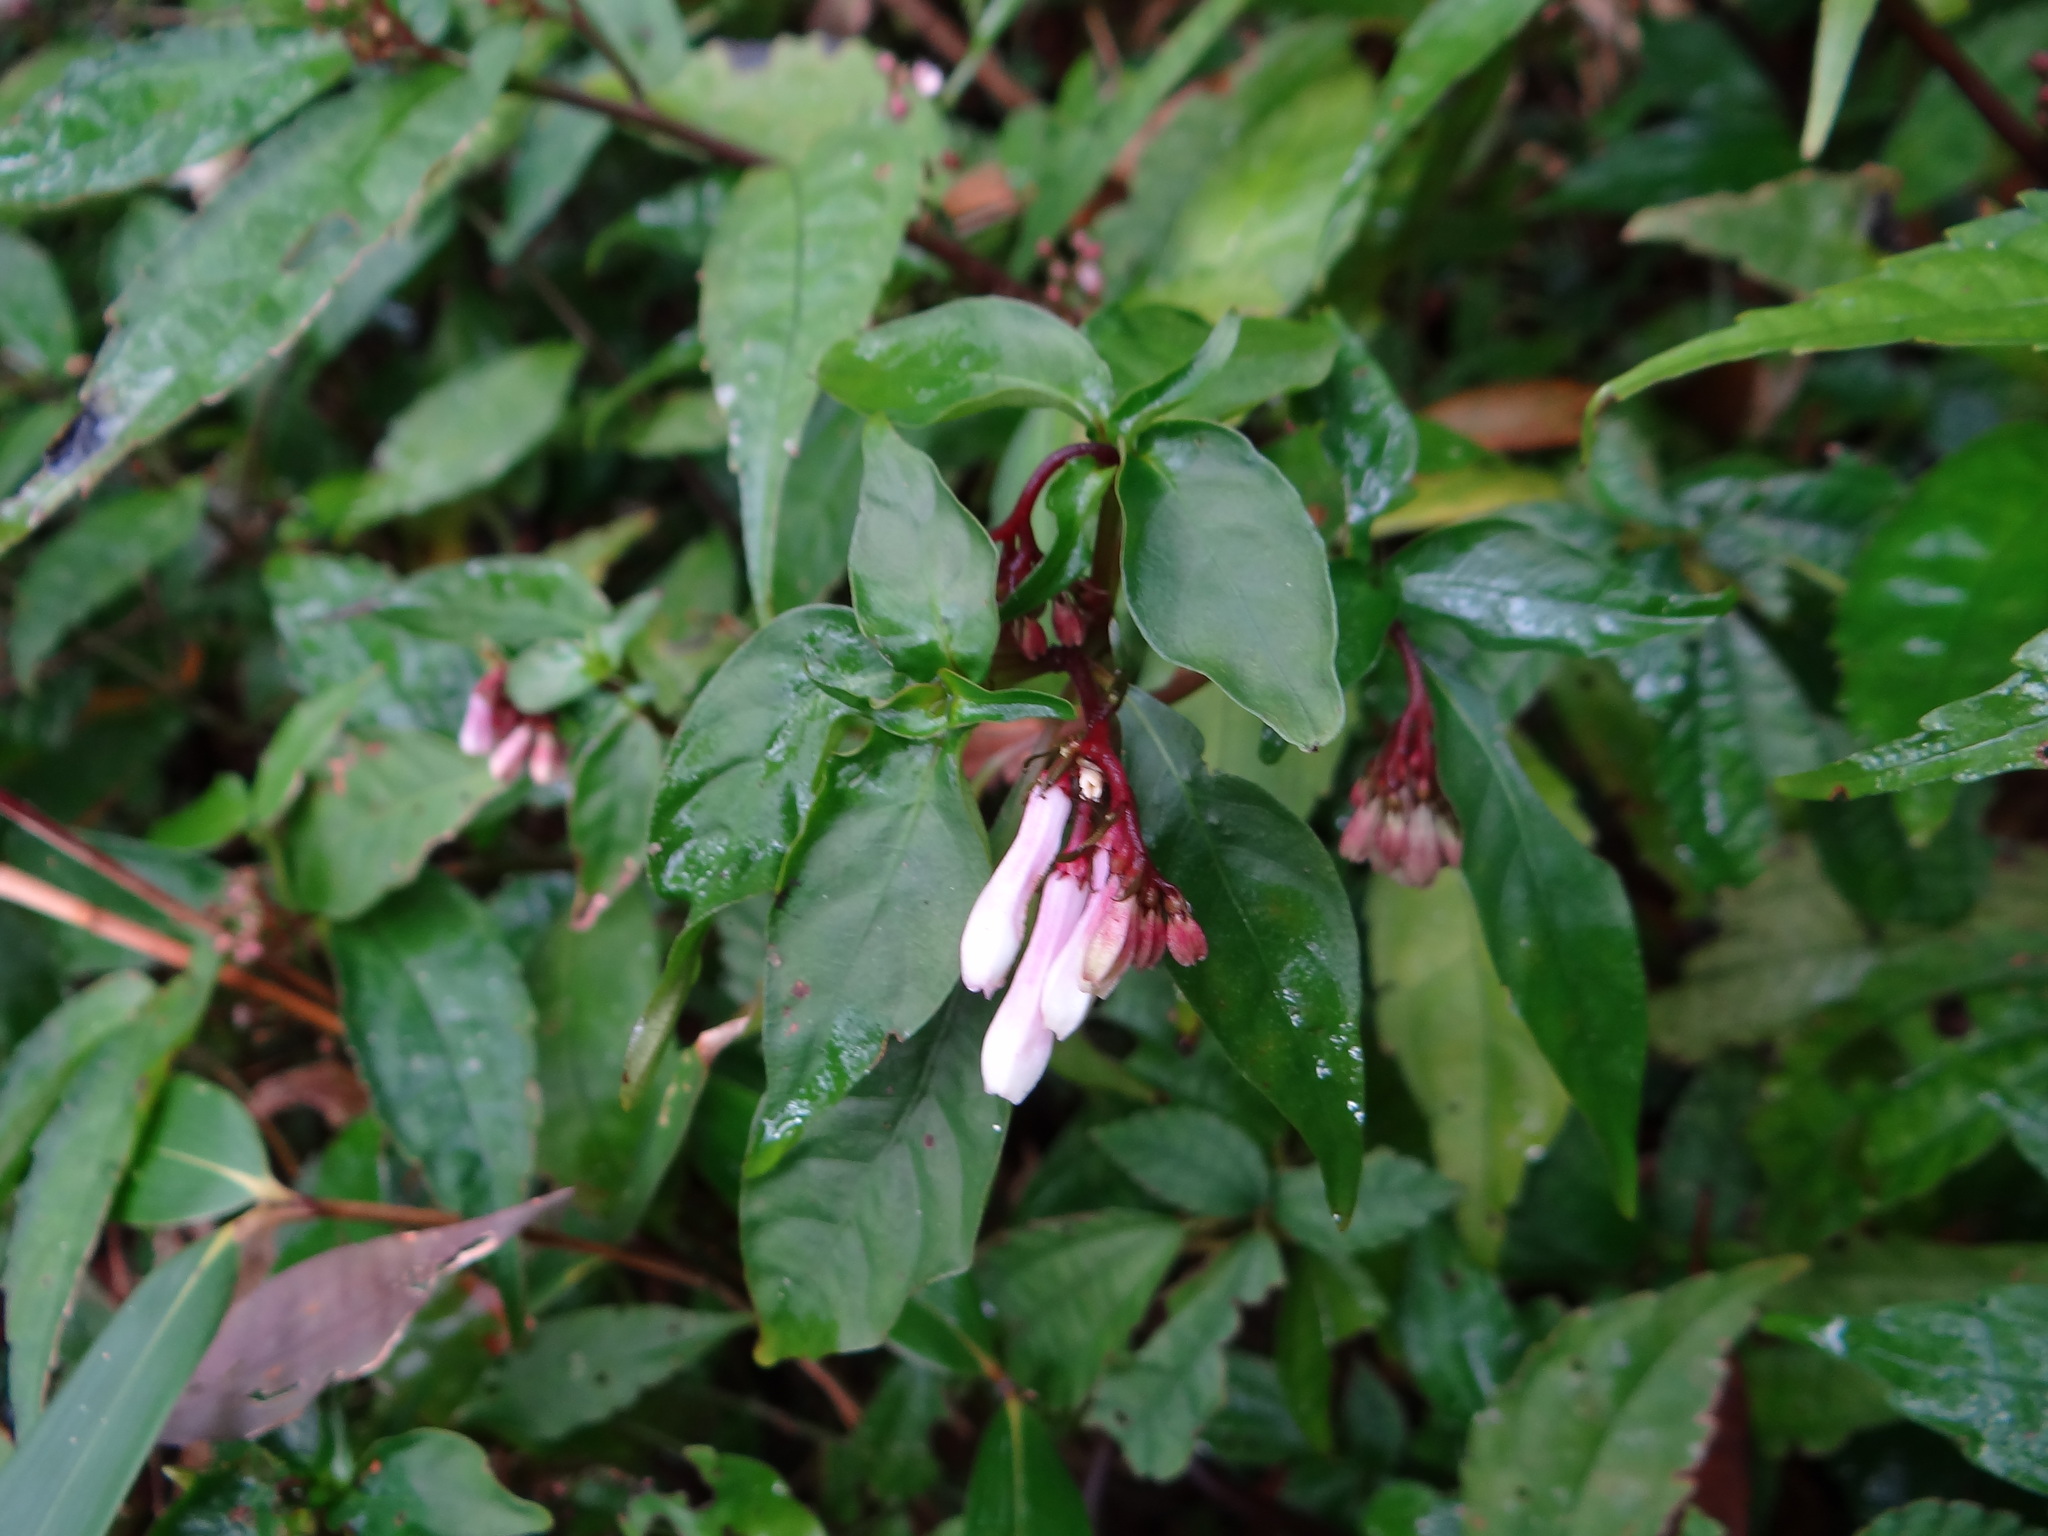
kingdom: Plantae
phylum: Tracheophyta
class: Magnoliopsida
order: Gentianales
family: Rubiaceae
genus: Ophiorrhiza
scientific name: Ophiorrhiza japonica
